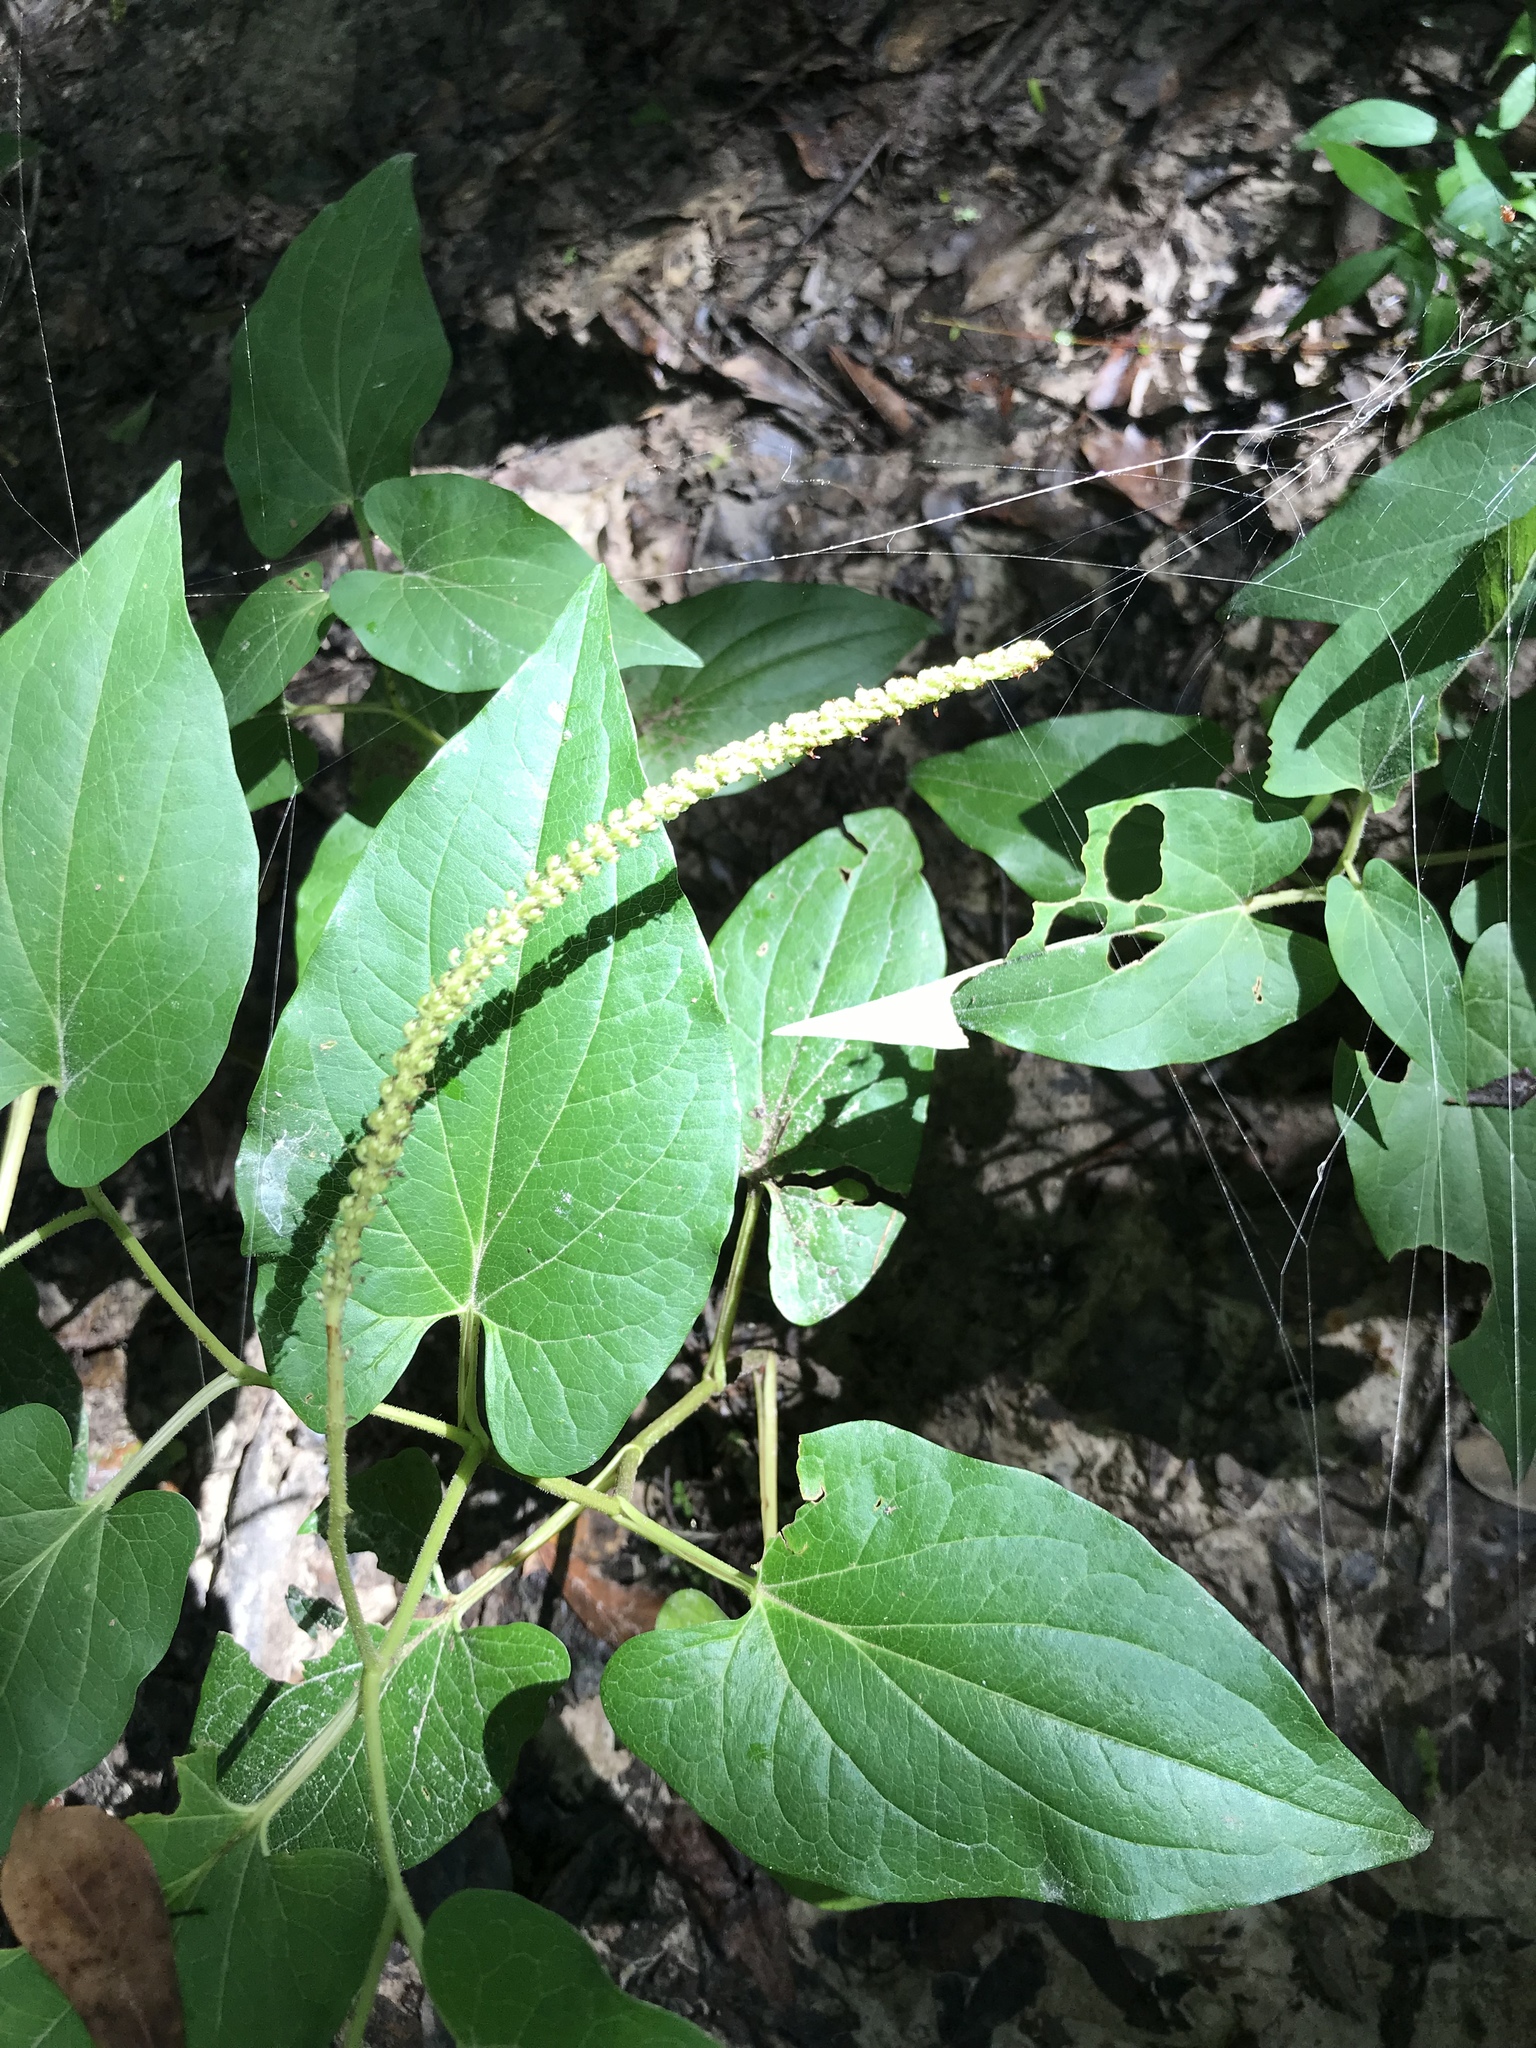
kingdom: Plantae
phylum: Tracheophyta
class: Magnoliopsida
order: Piperales
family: Saururaceae
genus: Saururus
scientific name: Saururus cernuus
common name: Lizard's-tail
